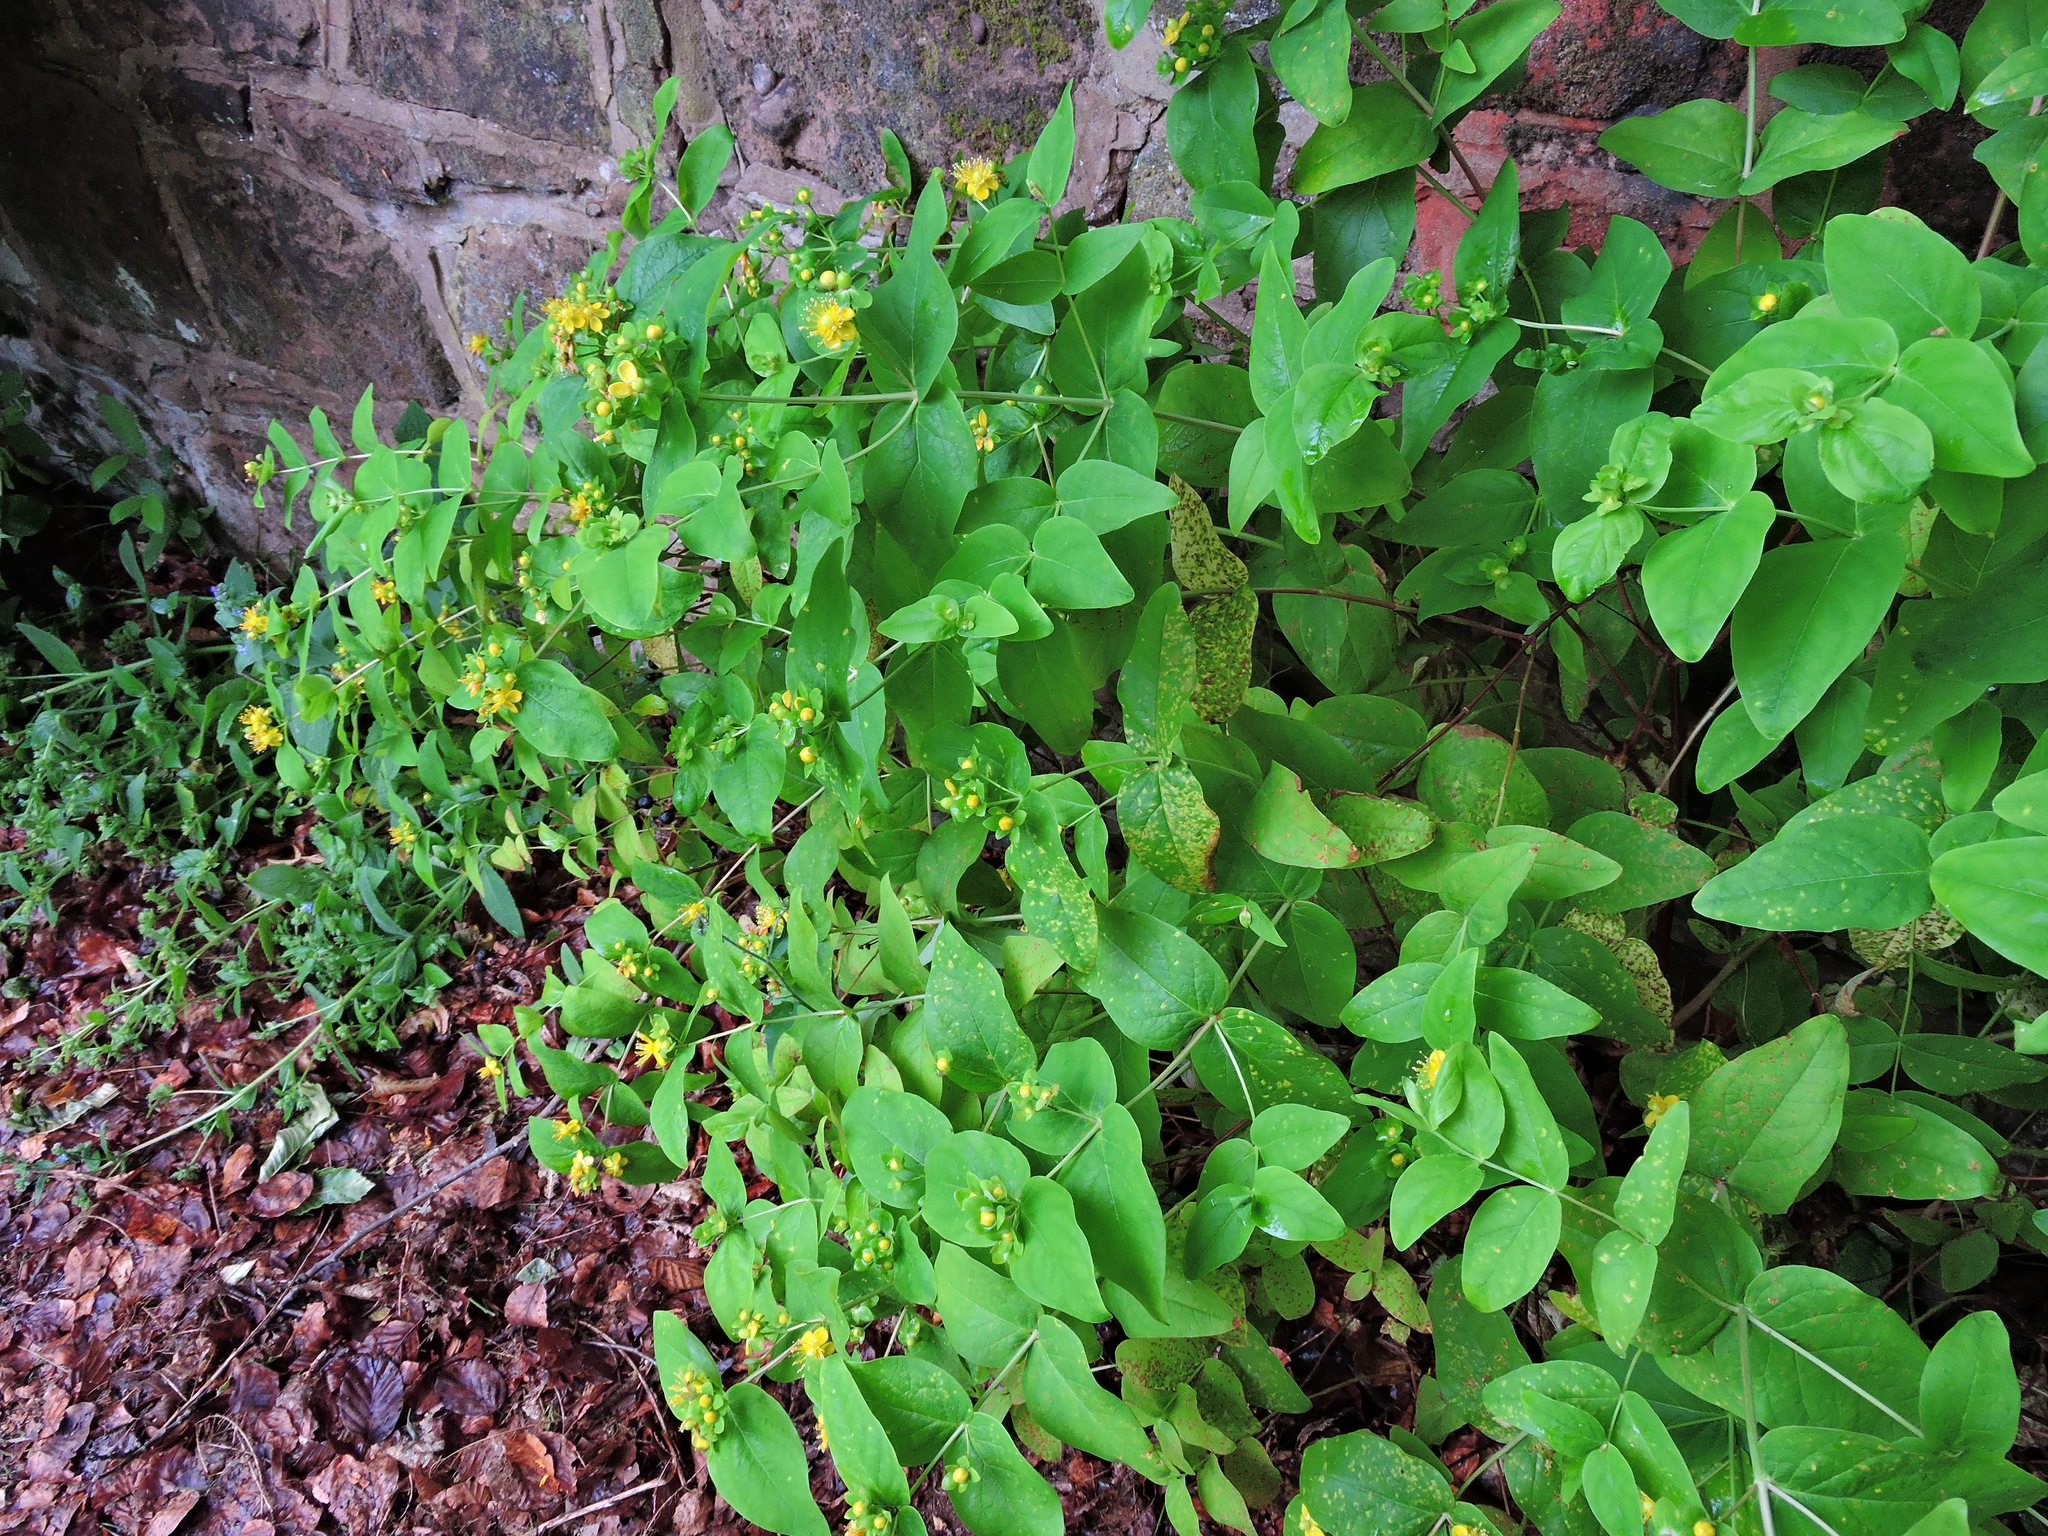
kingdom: Plantae
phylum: Tracheophyta
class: Magnoliopsida
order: Malpighiales
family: Hypericaceae
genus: Hypericum
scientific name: Hypericum androsaemum
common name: Sweet-amber
